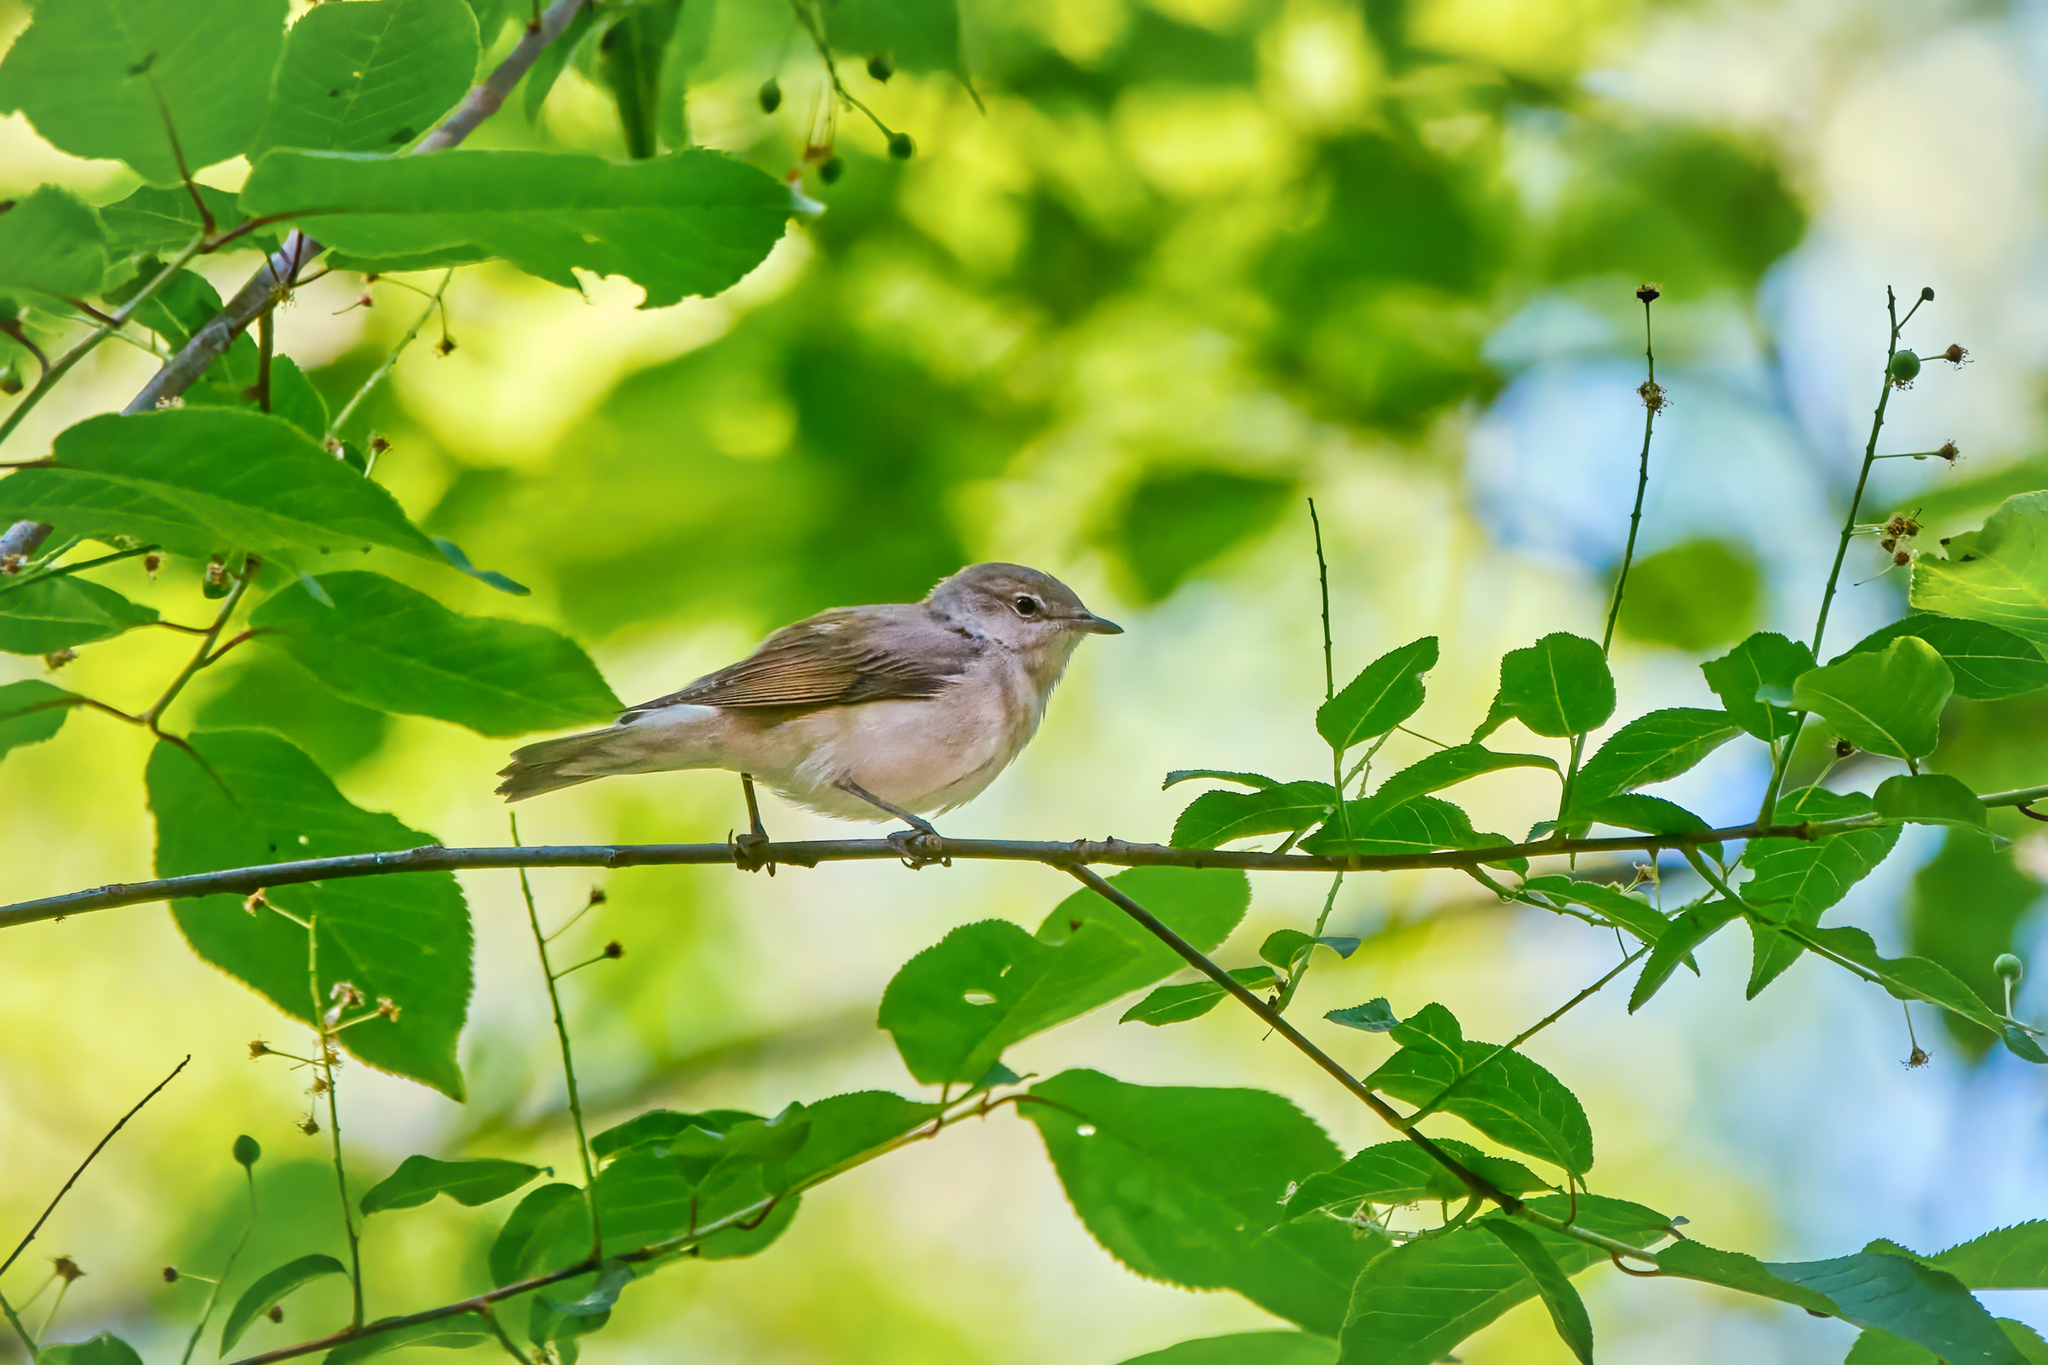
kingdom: Animalia
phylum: Chordata
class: Aves
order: Passeriformes
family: Sylviidae
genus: Sylvia
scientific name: Sylvia borin
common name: Garden warbler
